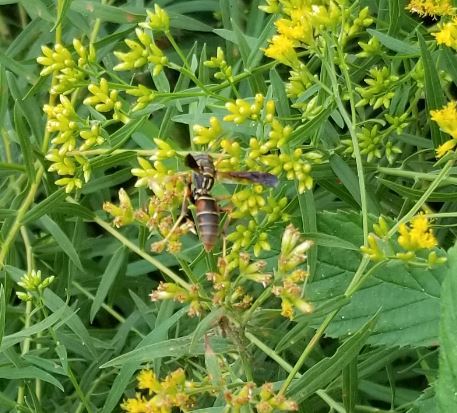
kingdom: Animalia
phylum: Arthropoda
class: Insecta
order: Hymenoptera
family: Eumenidae
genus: Polistes
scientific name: Polistes fuscatus
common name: Dark paper wasp
